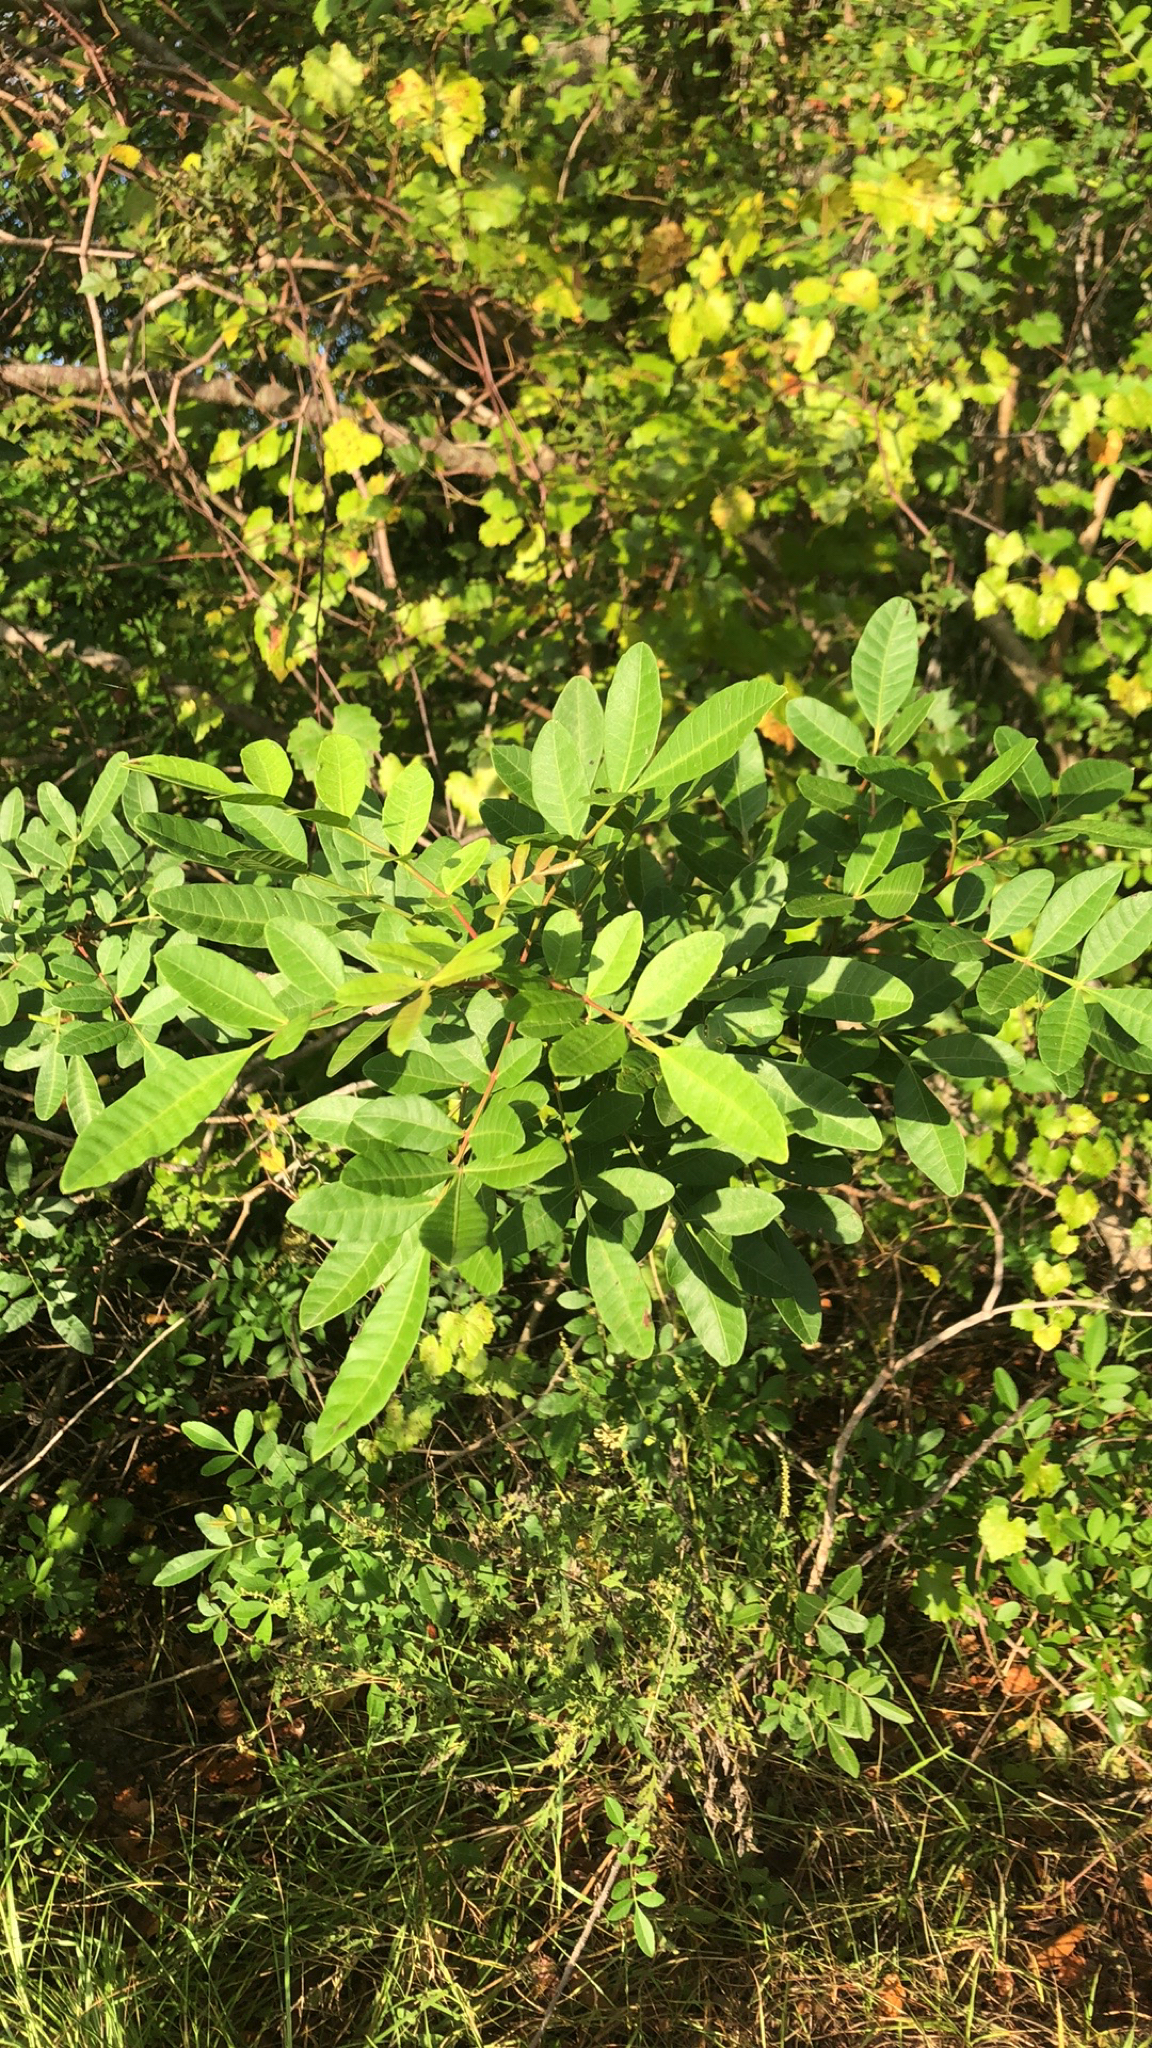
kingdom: Plantae
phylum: Tracheophyta
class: Magnoliopsida
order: Sapindales
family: Anacardiaceae
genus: Schinus
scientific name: Schinus terebinthifolia
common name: Brazilian peppertree
